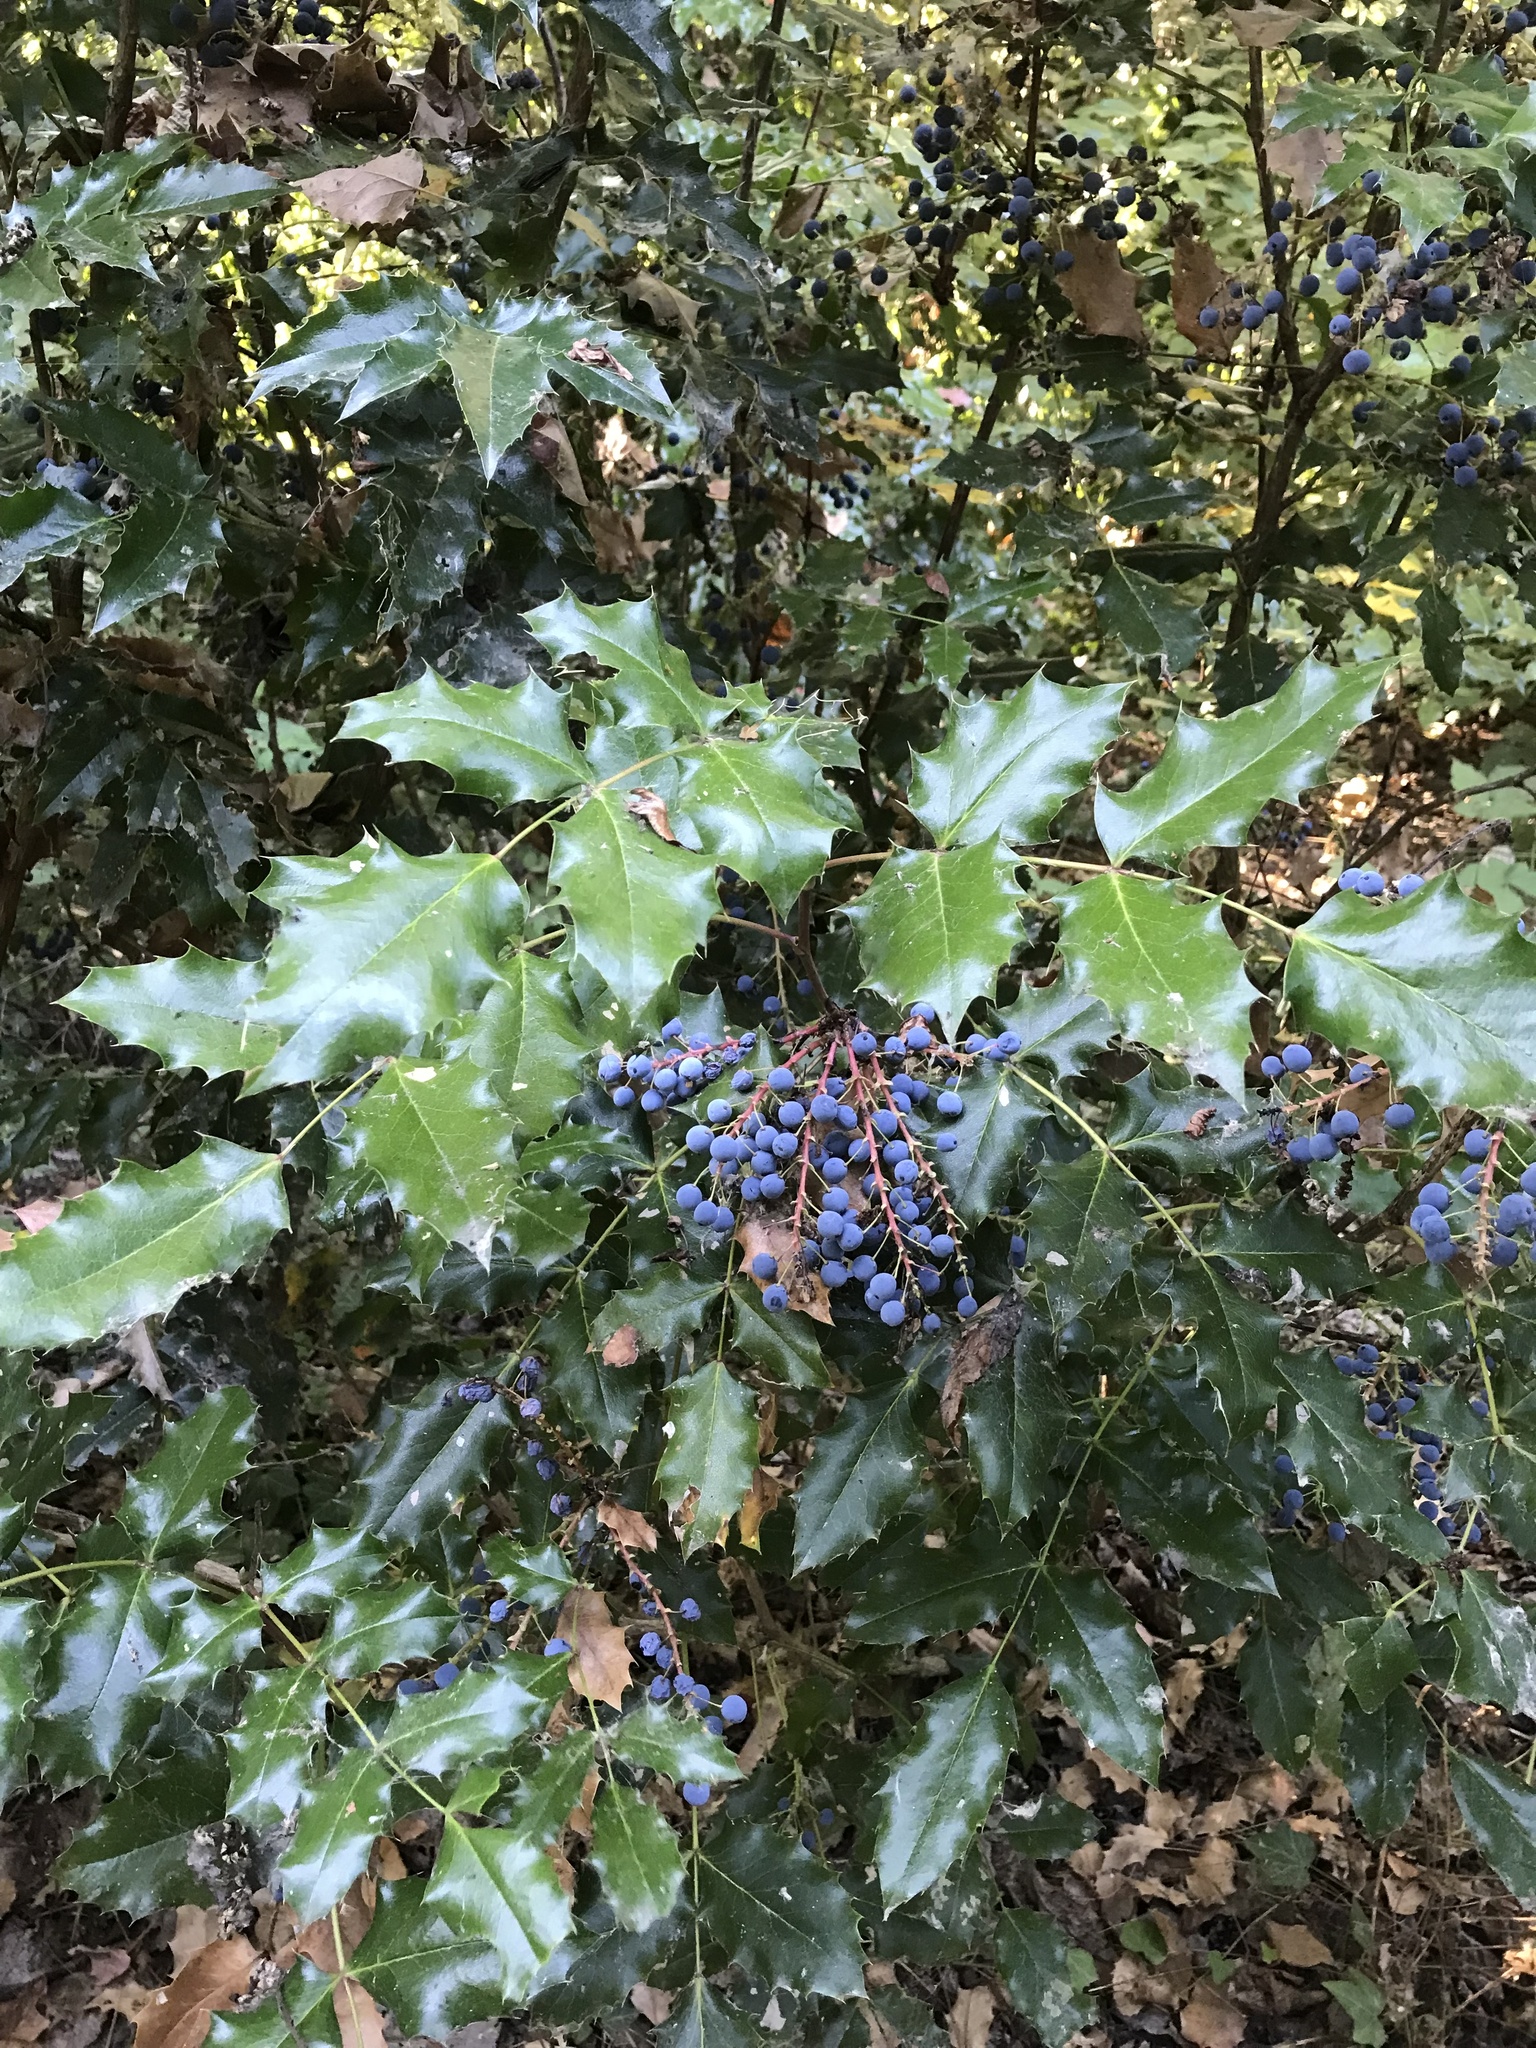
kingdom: Plantae
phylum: Tracheophyta
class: Magnoliopsida
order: Ranunculales
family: Berberidaceae
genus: Mahonia
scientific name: Mahonia aquifolium
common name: Oregon-grape
